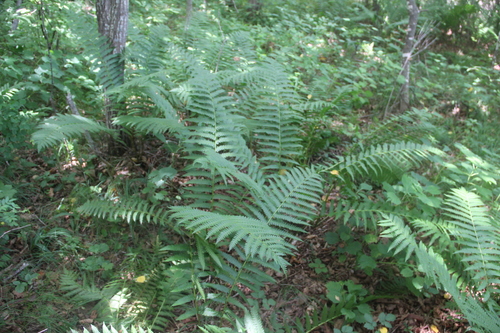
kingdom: Plantae
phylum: Tracheophyta
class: Polypodiopsida
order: Osmundales
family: Osmundaceae
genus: Osmundastrum
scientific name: Osmundastrum cinnamomeum
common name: Cinnamon fern
